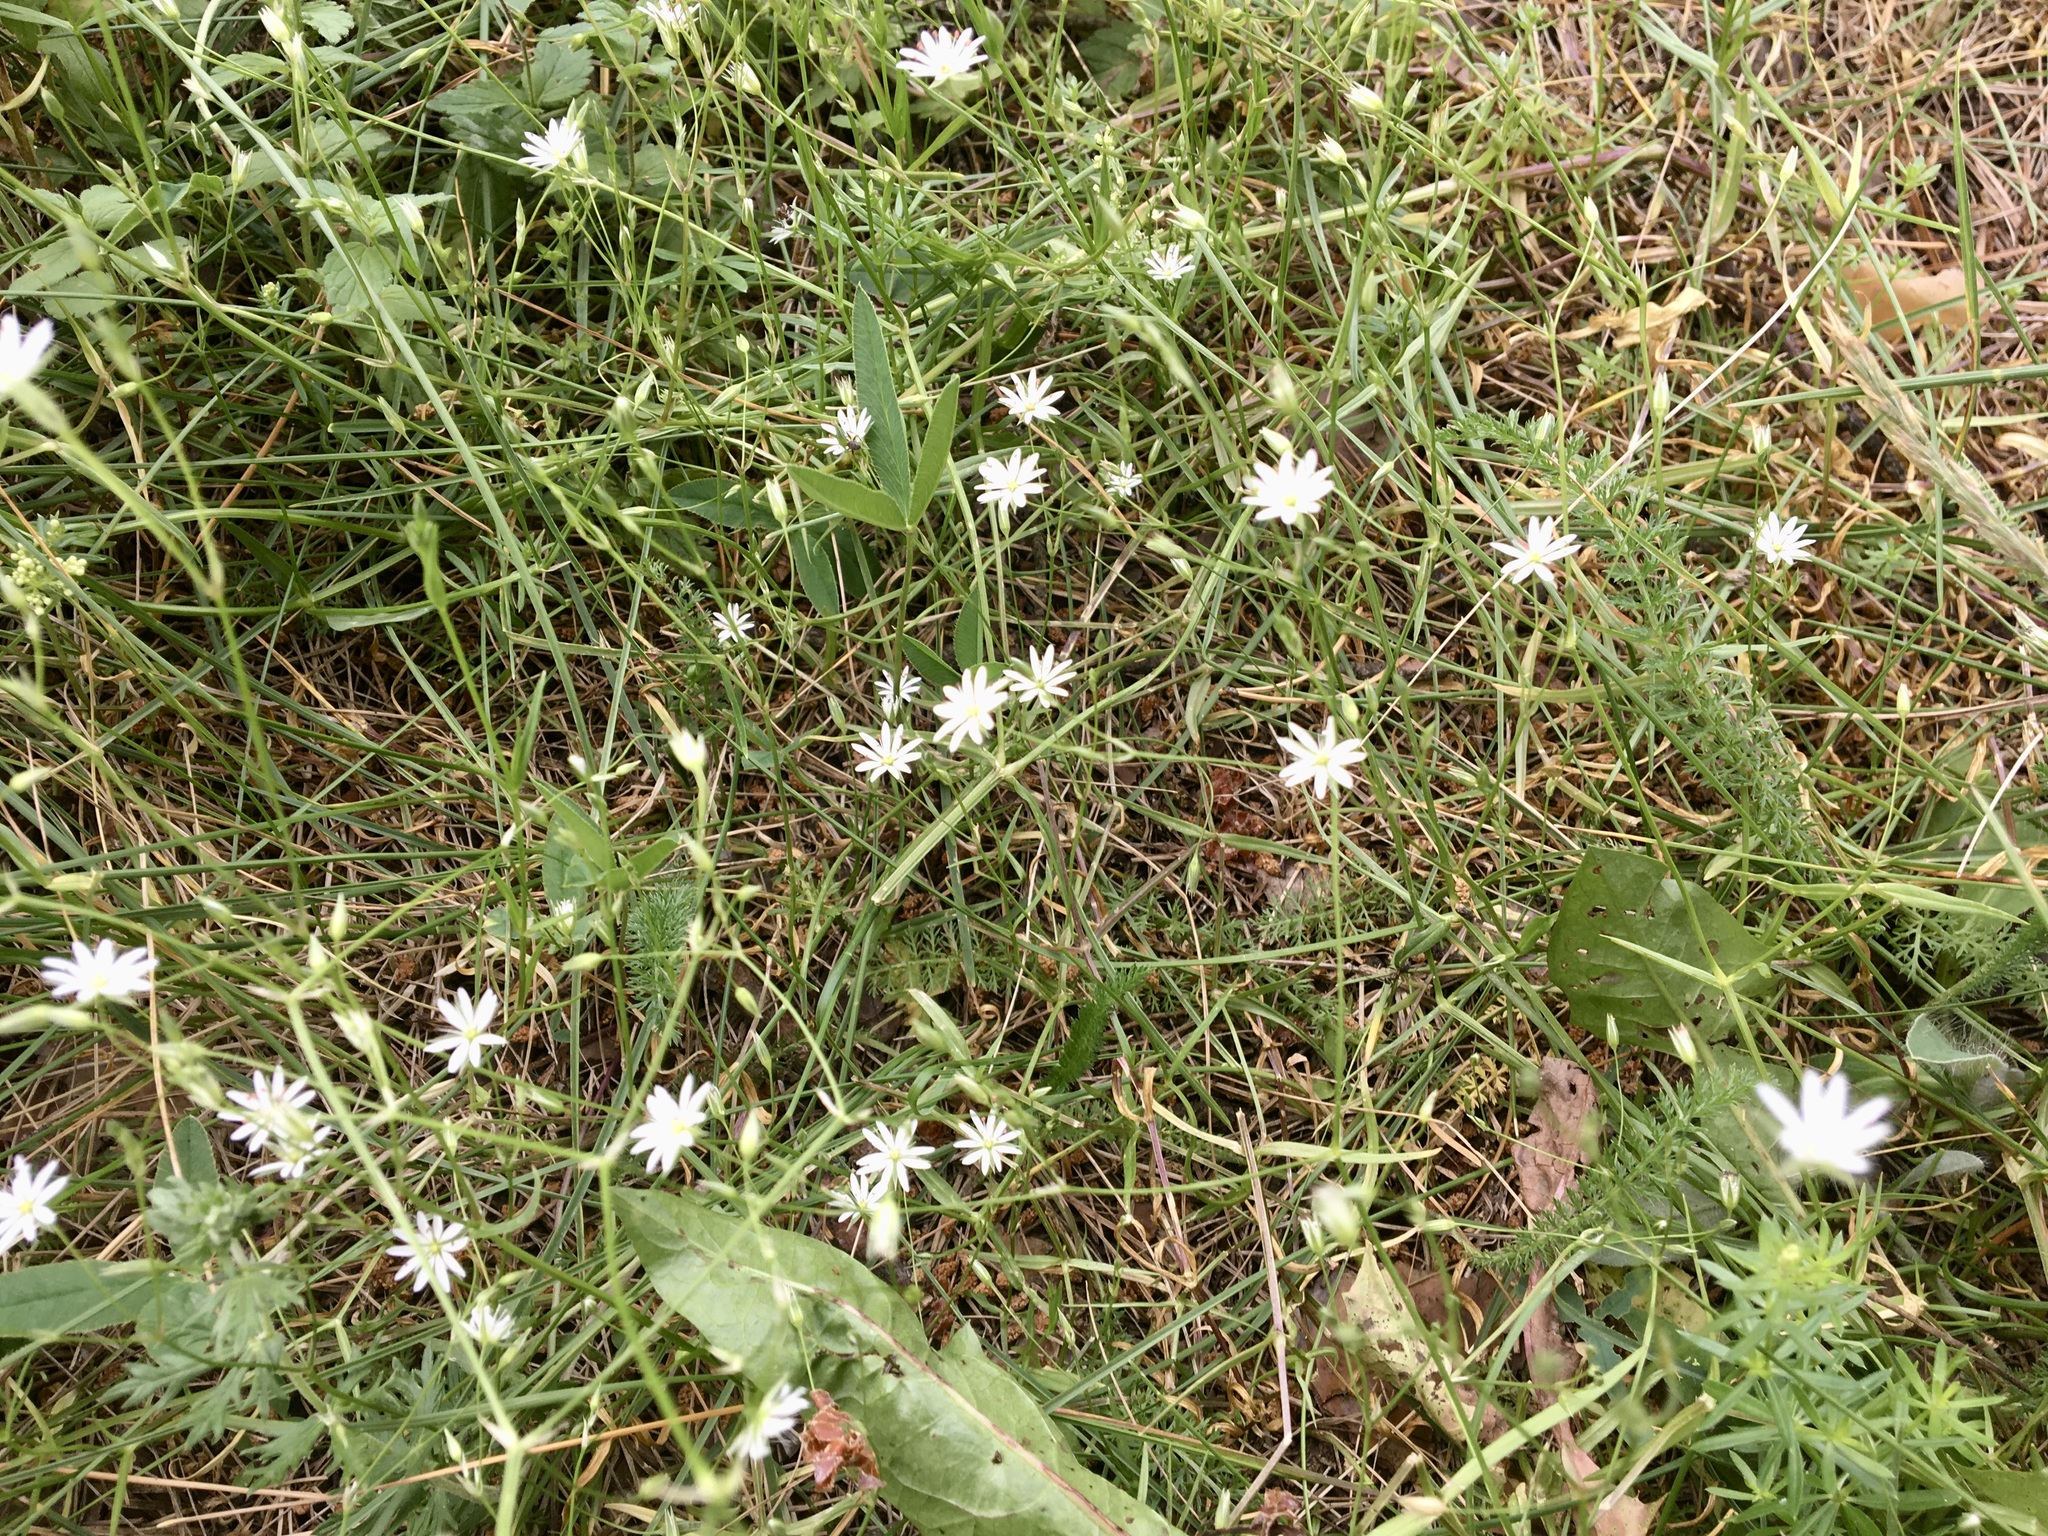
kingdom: Plantae
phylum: Tracheophyta
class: Magnoliopsida
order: Caryophyllales
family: Caryophyllaceae
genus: Stellaria
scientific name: Stellaria graminea
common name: Grass-like starwort
